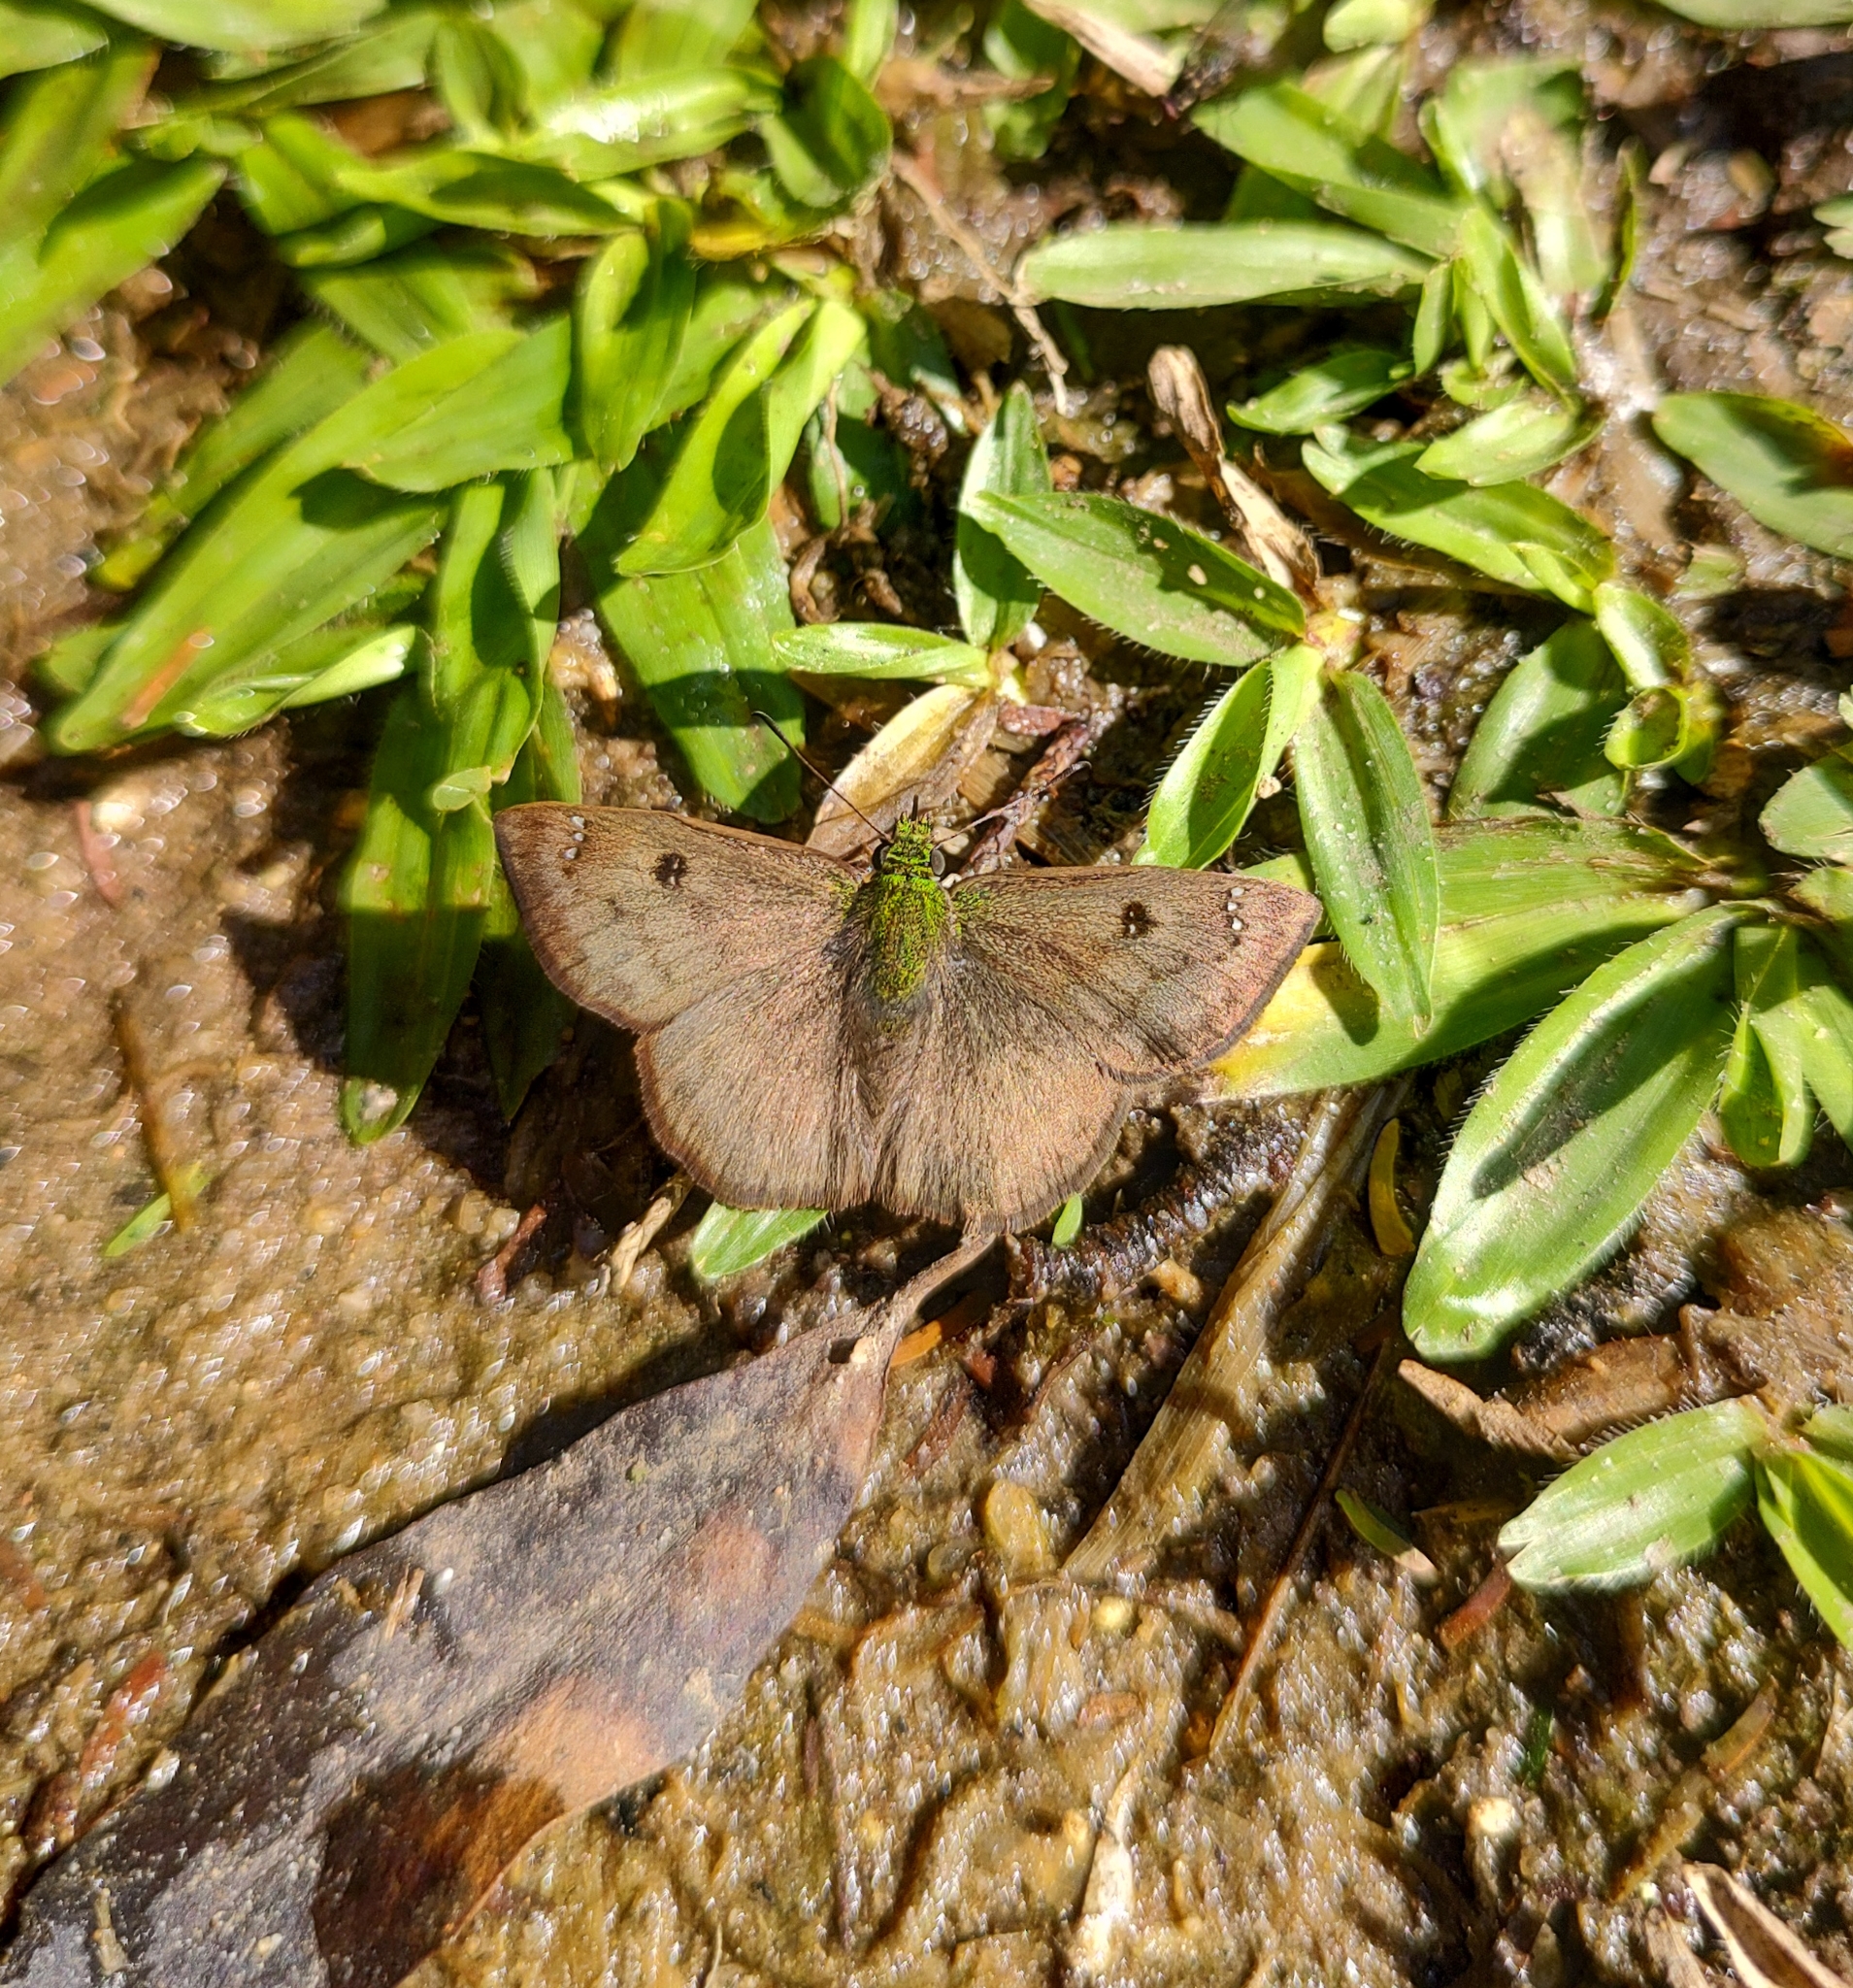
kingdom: Animalia
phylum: Arthropoda
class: Insecta
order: Lepidoptera
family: Hesperiidae
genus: Gorgopas
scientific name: Gorgopas petale
